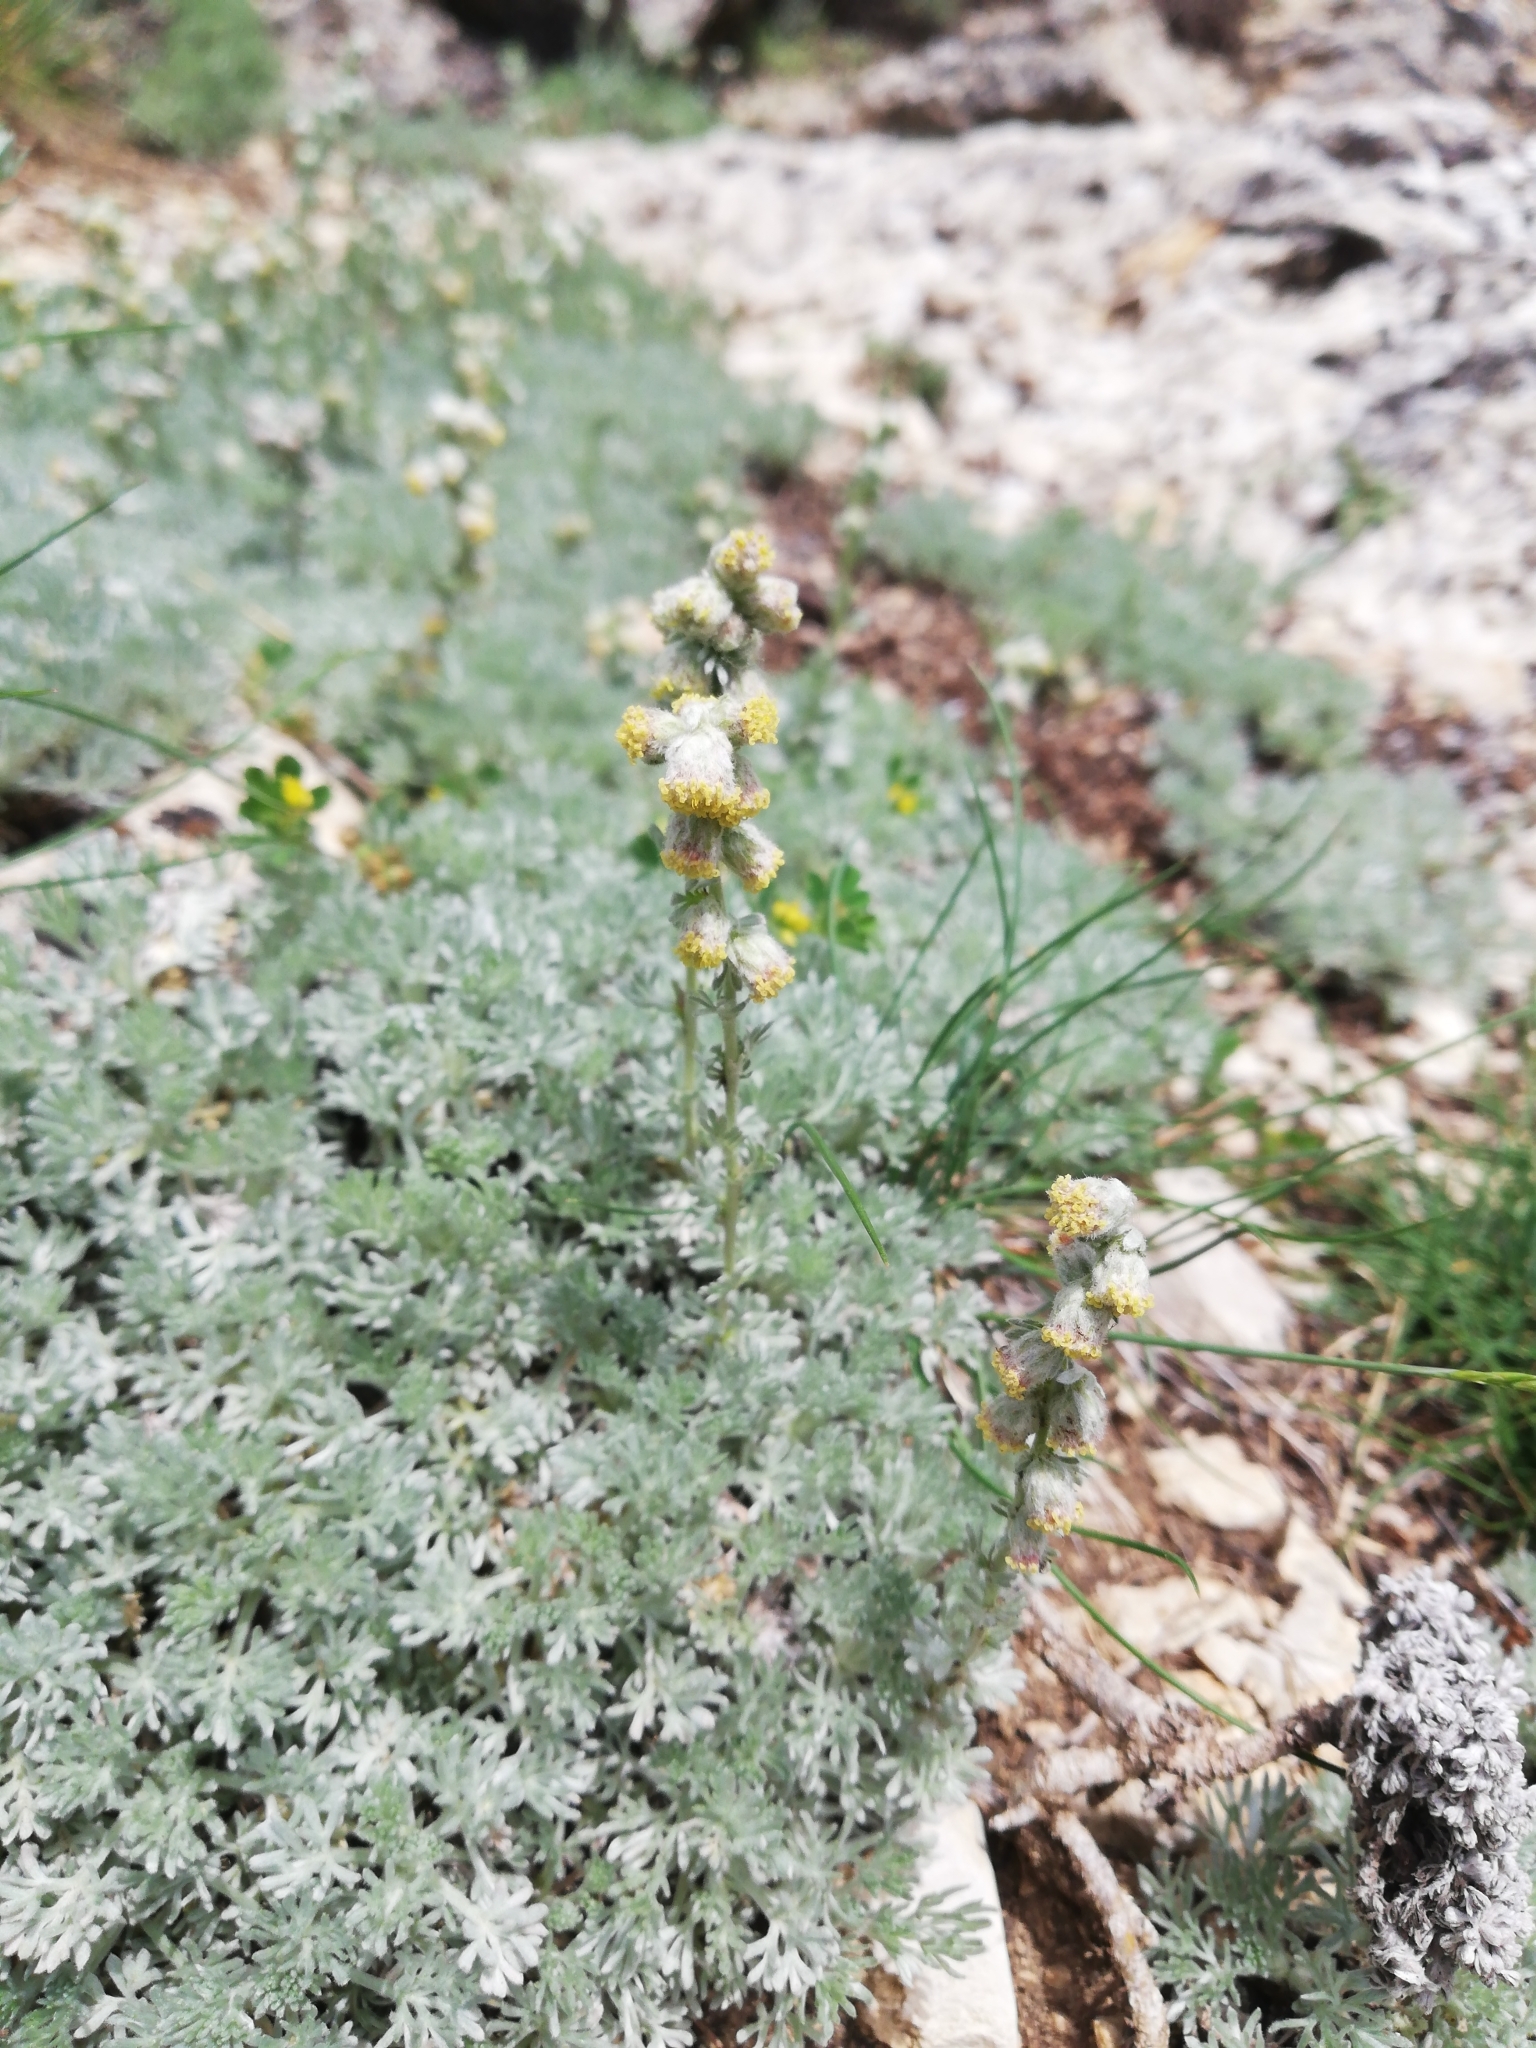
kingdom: Plantae
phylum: Tracheophyta
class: Magnoliopsida
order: Asterales
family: Asteraceae
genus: Artemisia
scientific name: Artemisia assoana
